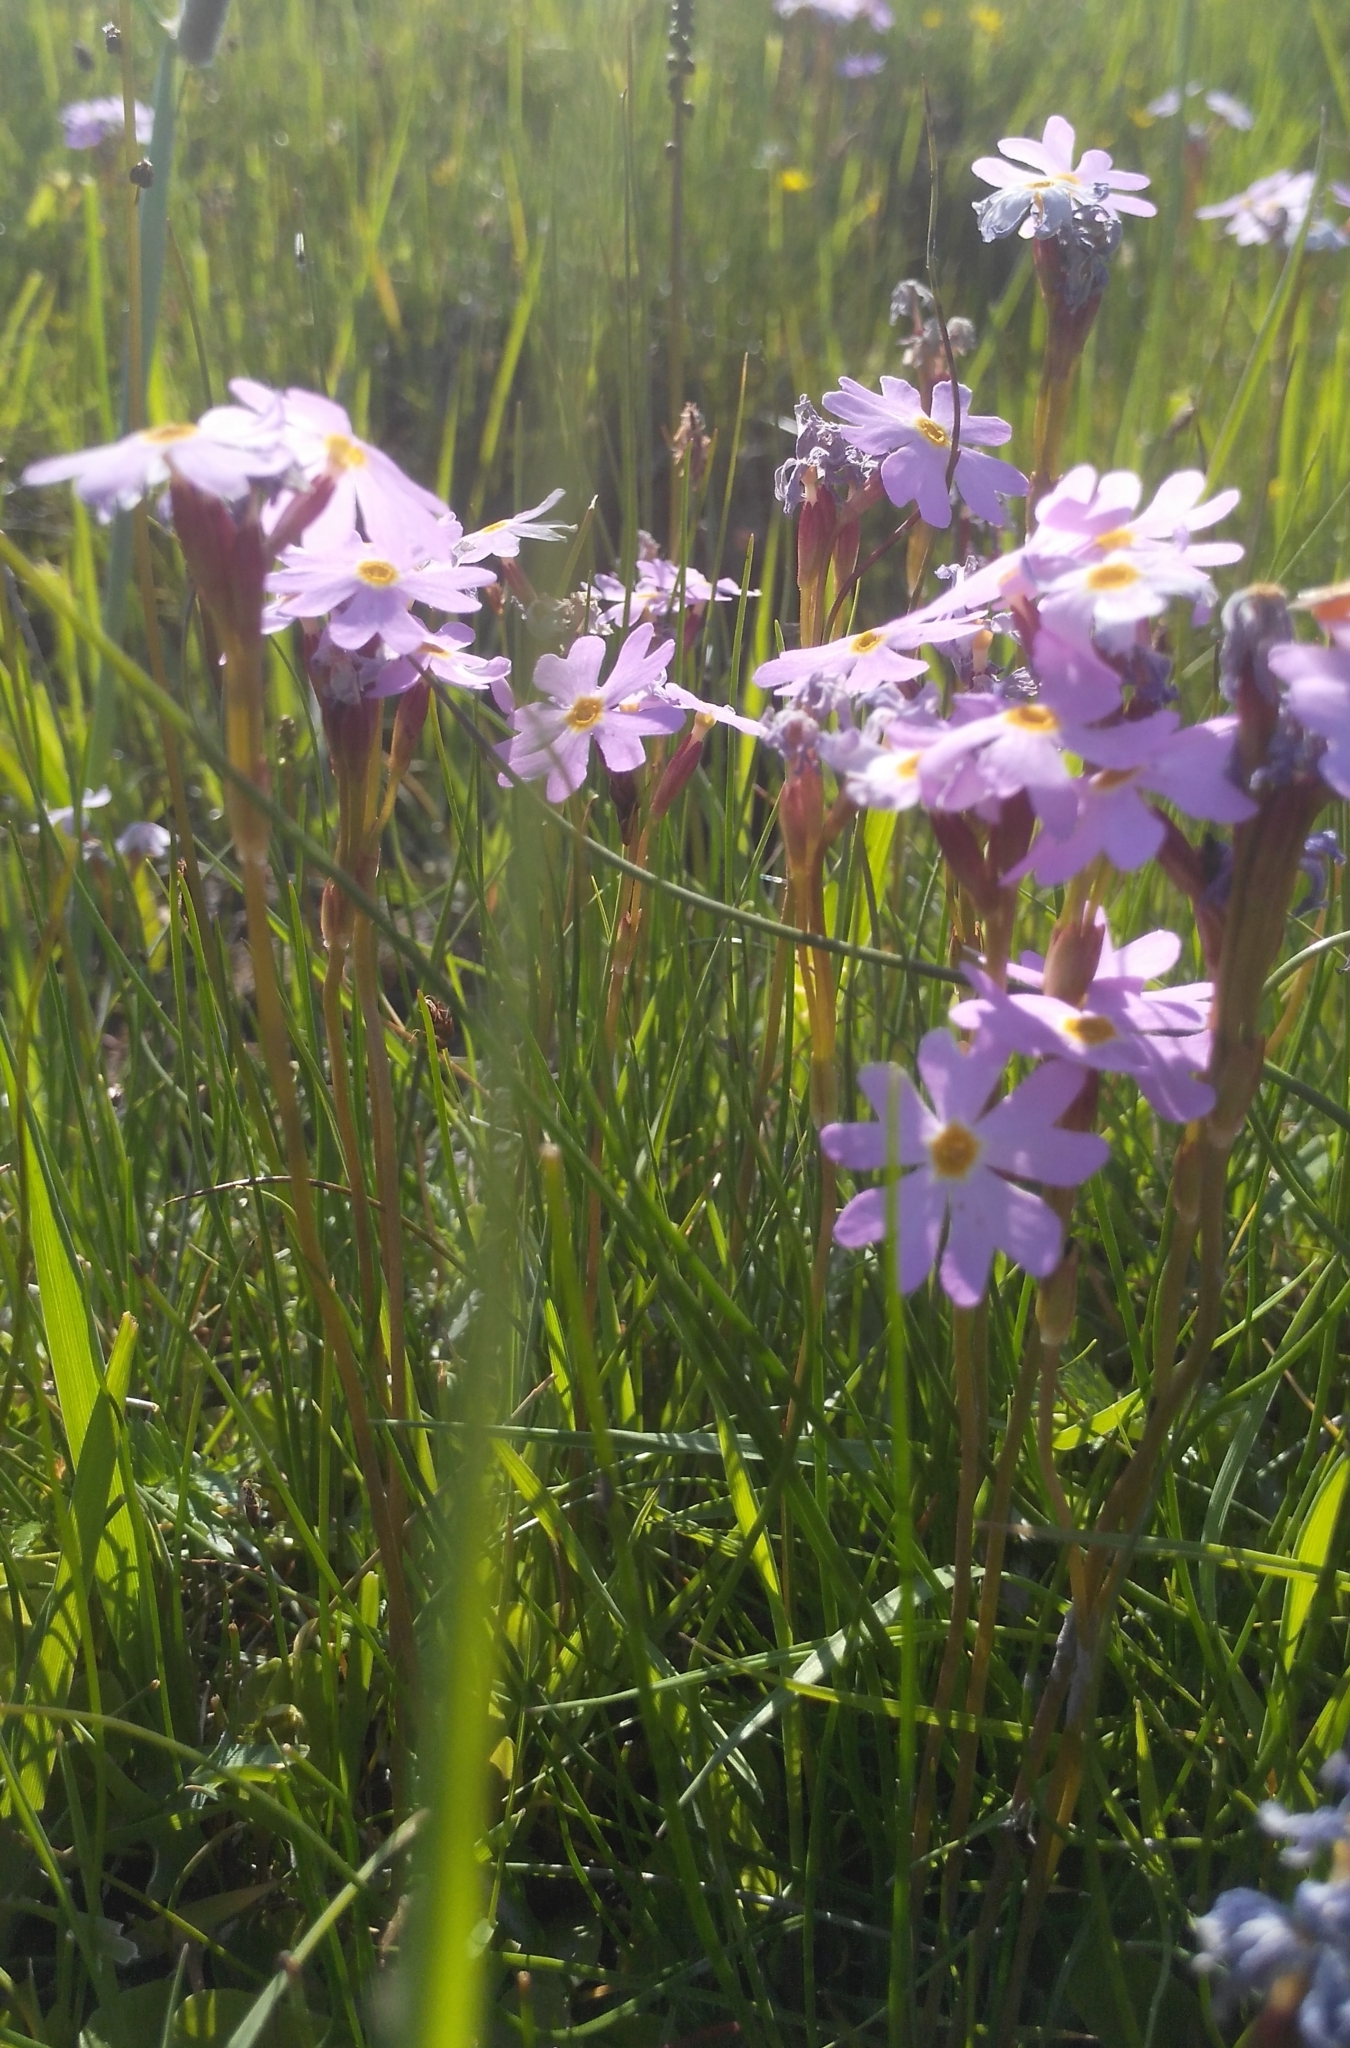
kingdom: Plantae
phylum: Tracheophyta
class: Magnoliopsida
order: Ericales
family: Primulaceae
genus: Primula
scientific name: Primula nutans
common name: Siberian primrose
